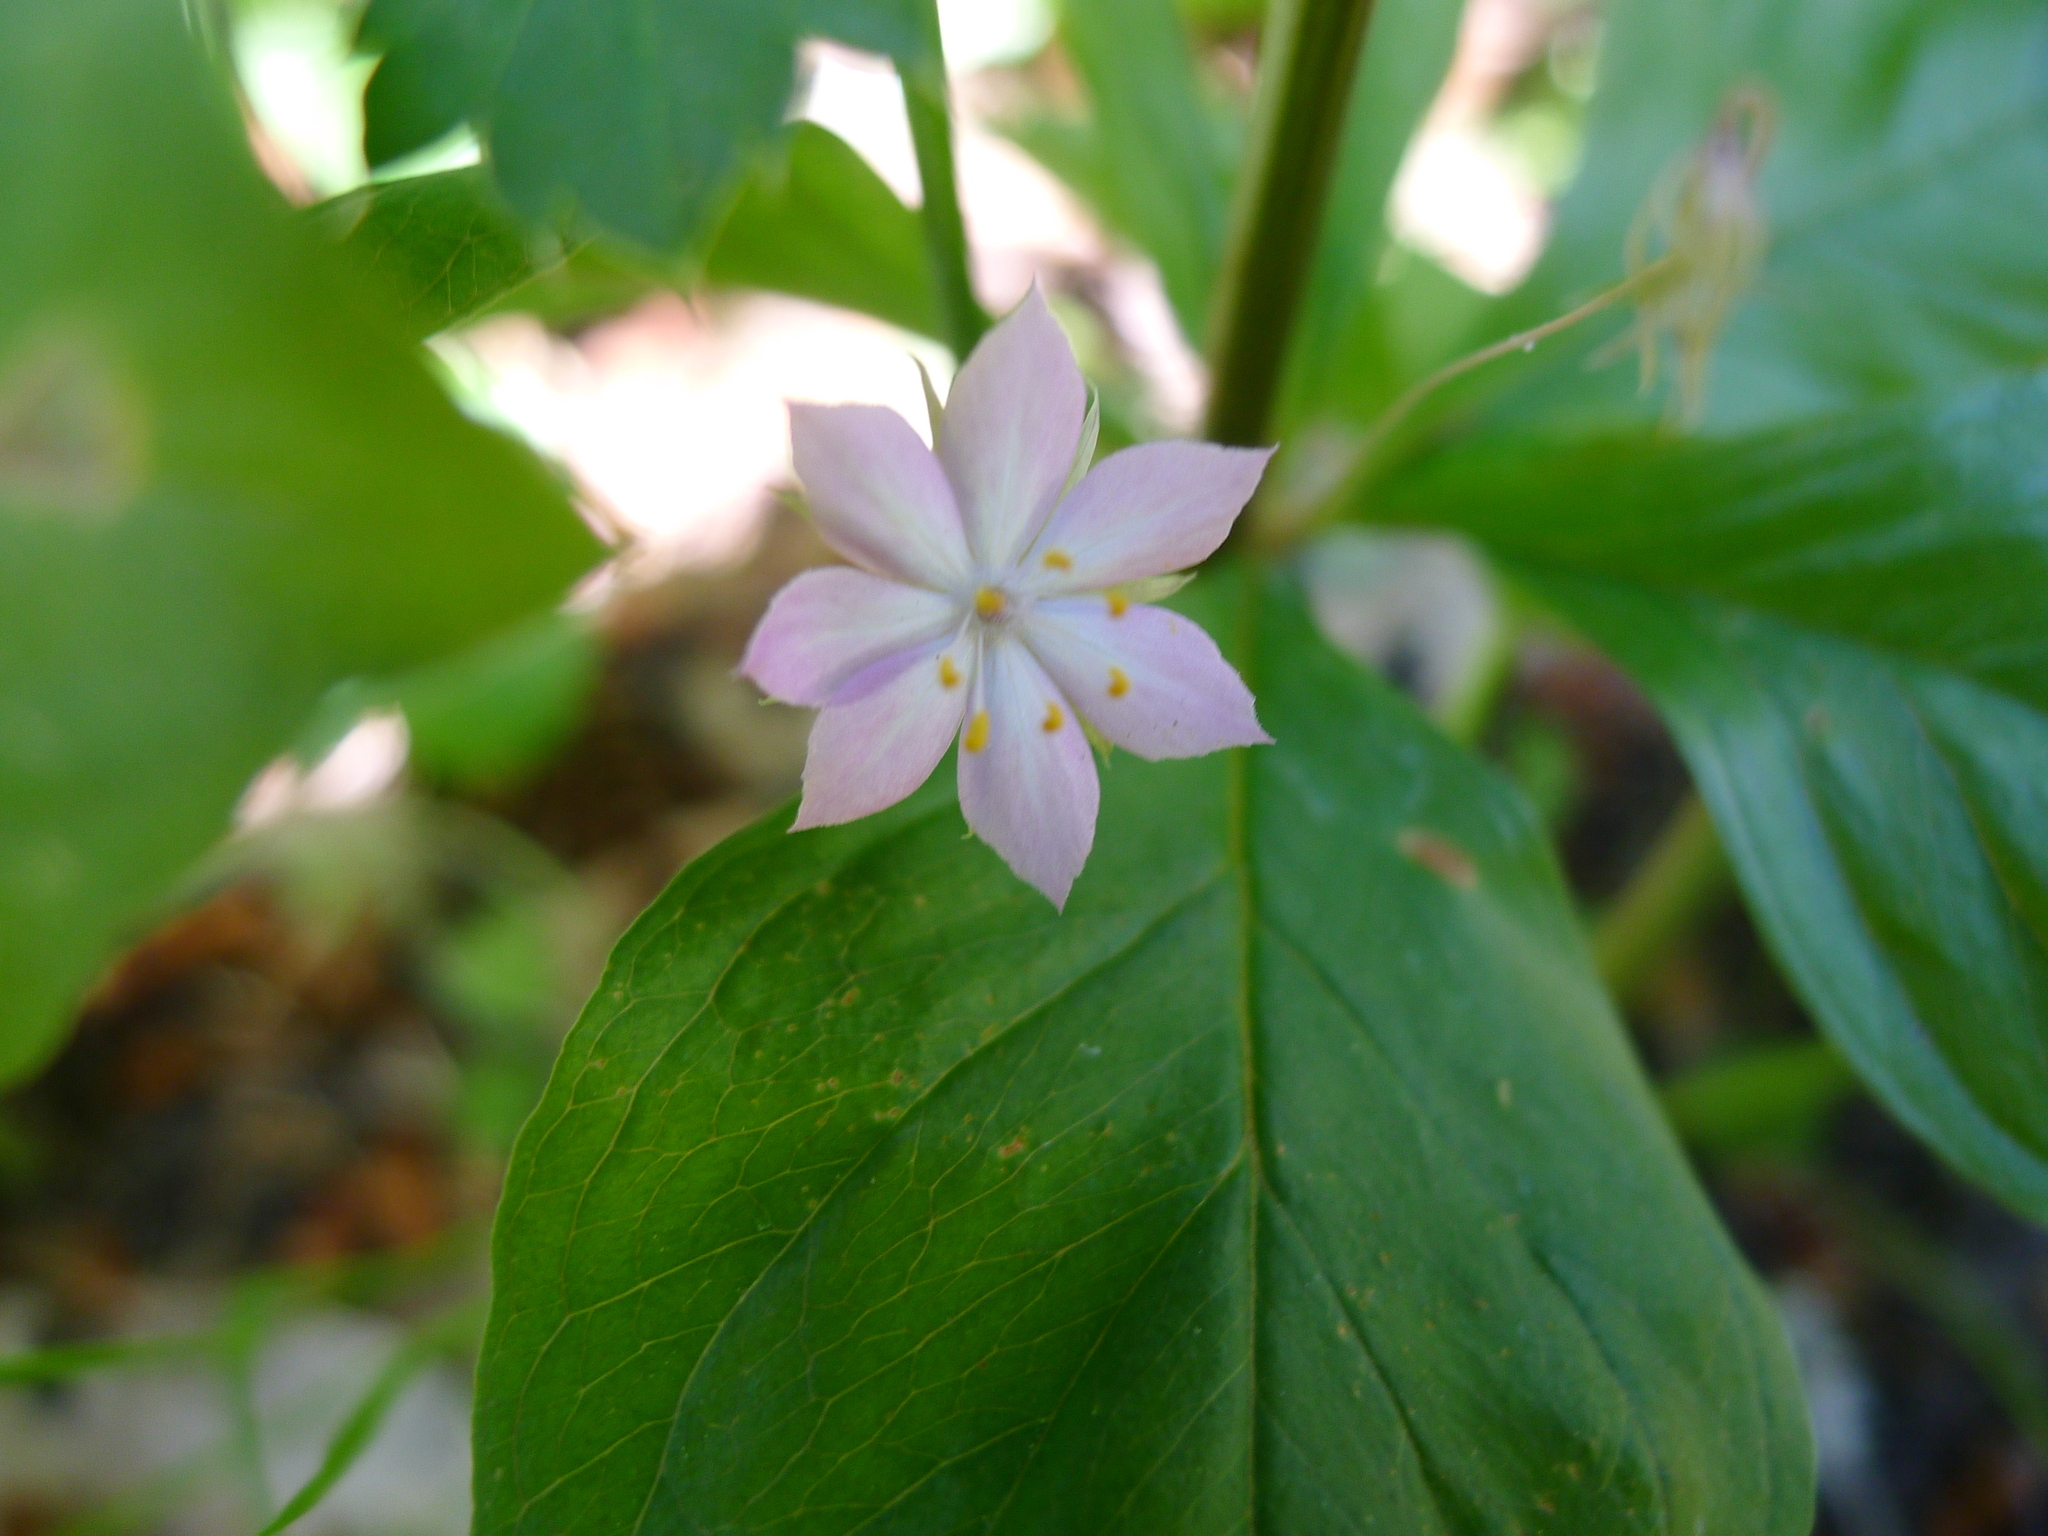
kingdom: Plantae
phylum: Tracheophyta
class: Magnoliopsida
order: Ericales
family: Primulaceae
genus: Lysimachia
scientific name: Lysimachia latifolia
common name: Pacific starflower
